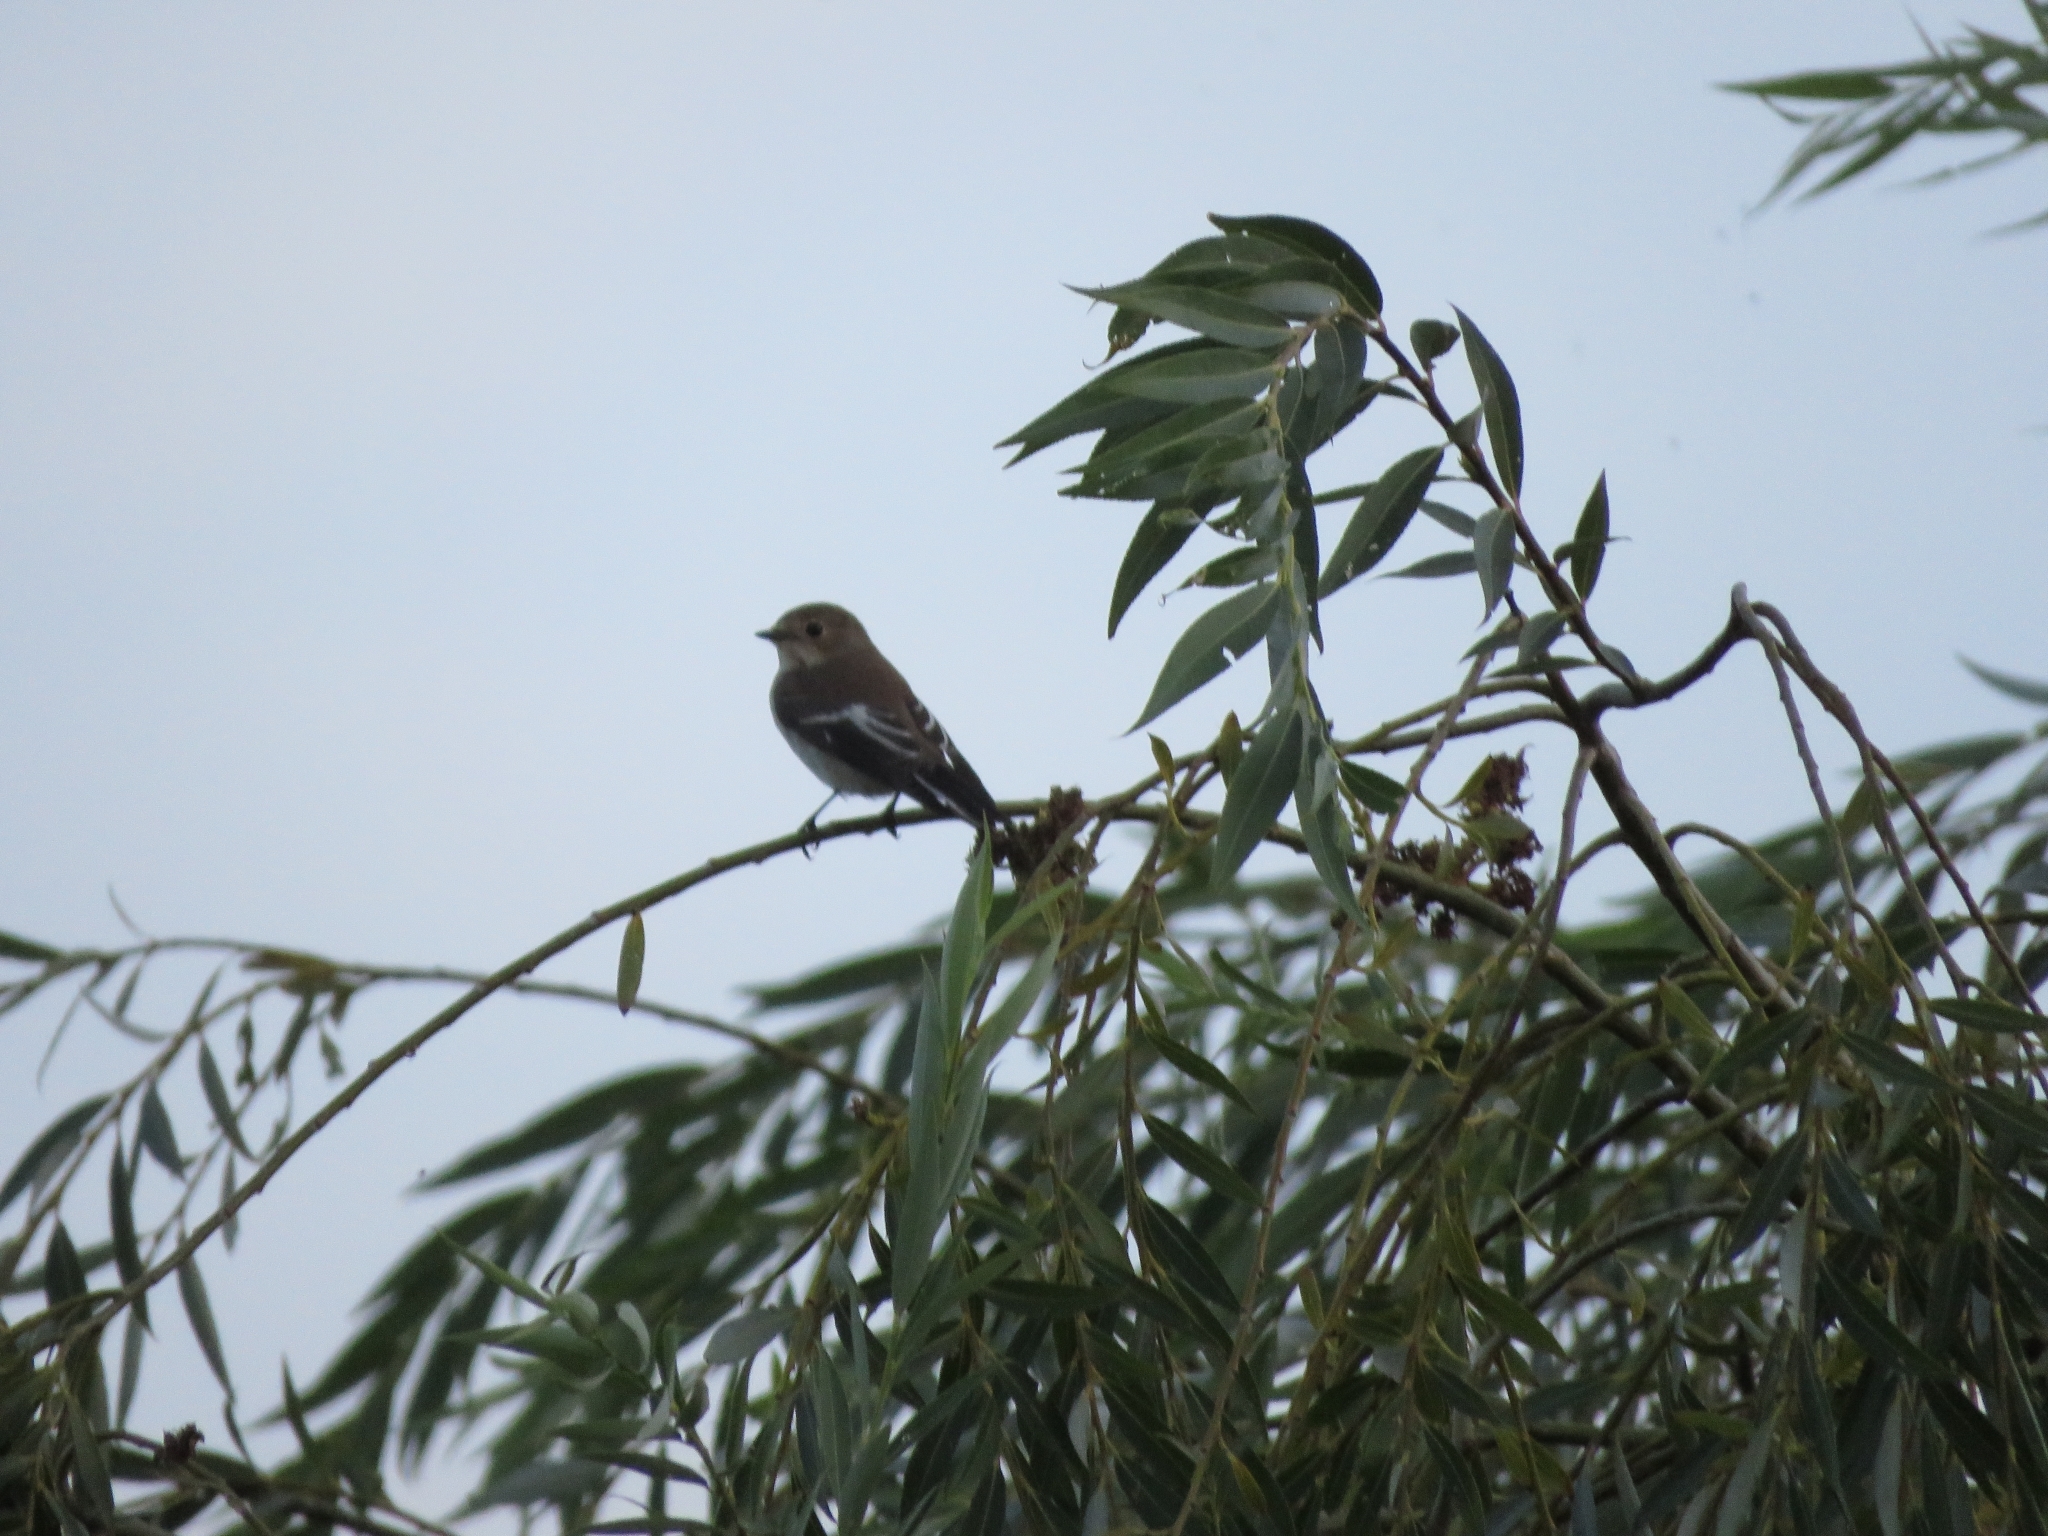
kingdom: Animalia
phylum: Chordata
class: Aves
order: Passeriformes
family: Muscicapidae
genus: Ficedula
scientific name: Ficedula hypoleuca
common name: European pied flycatcher
